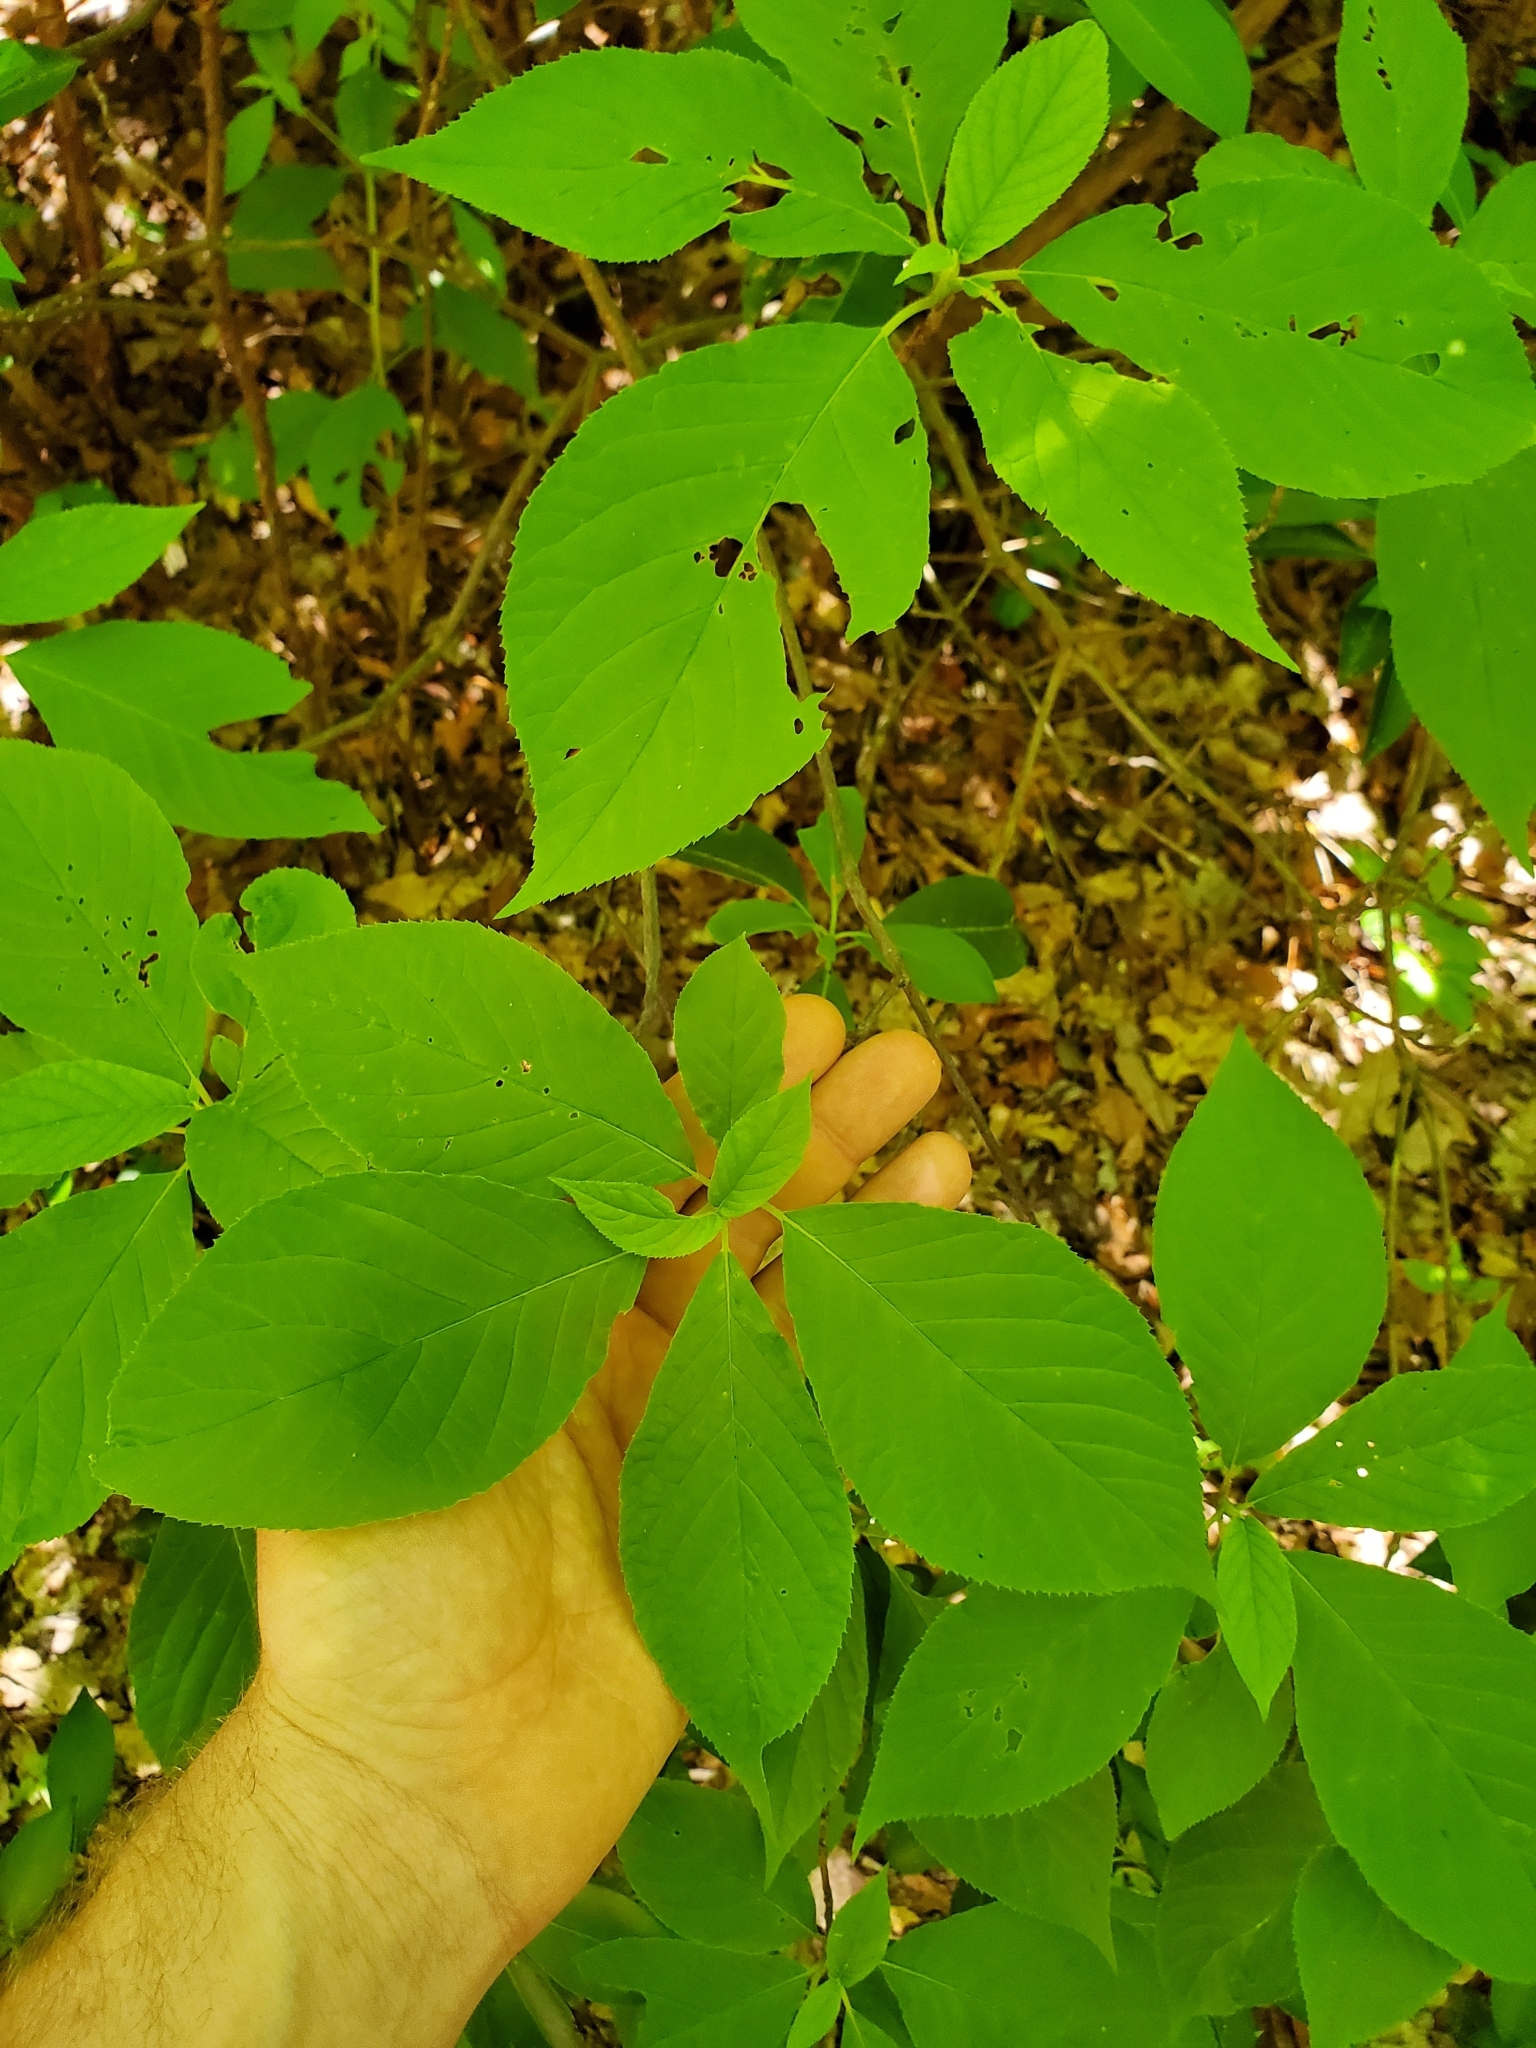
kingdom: Plantae
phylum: Tracheophyta
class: Magnoliopsida
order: Ericales
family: Clethraceae
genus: Clethra
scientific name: Clethra acuminata
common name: Mountain sweet pepperbush
